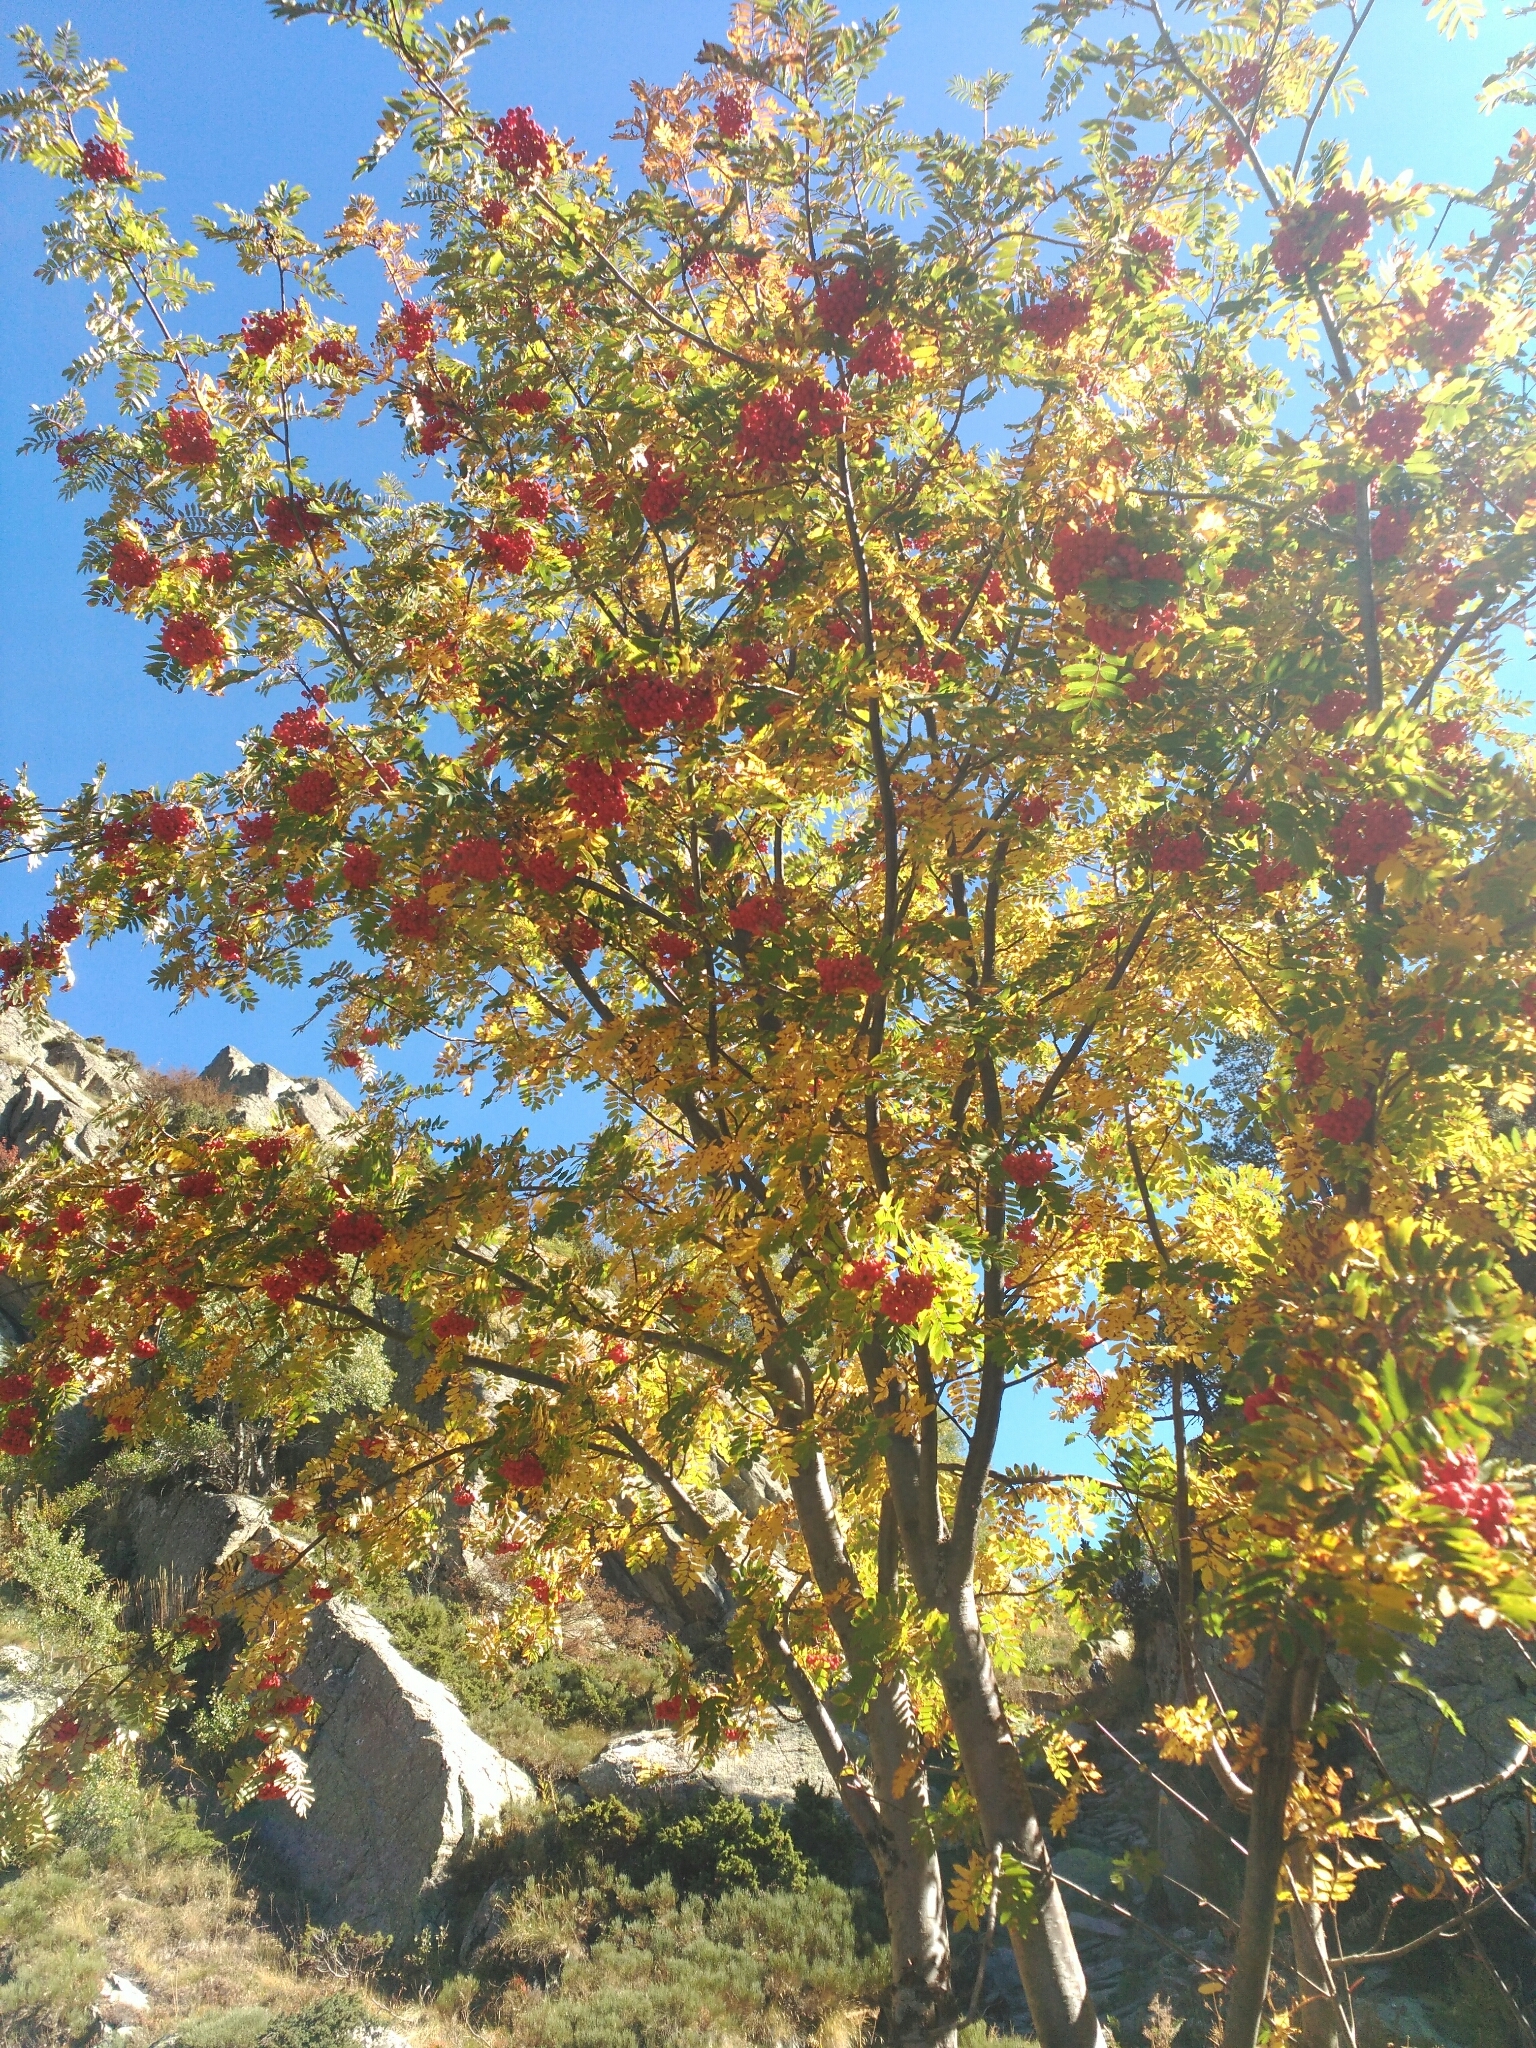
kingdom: Plantae
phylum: Tracheophyta
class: Magnoliopsida
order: Rosales
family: Rosaceae
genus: Sorbus
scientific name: Sorbus aucuparia
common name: Rowan
